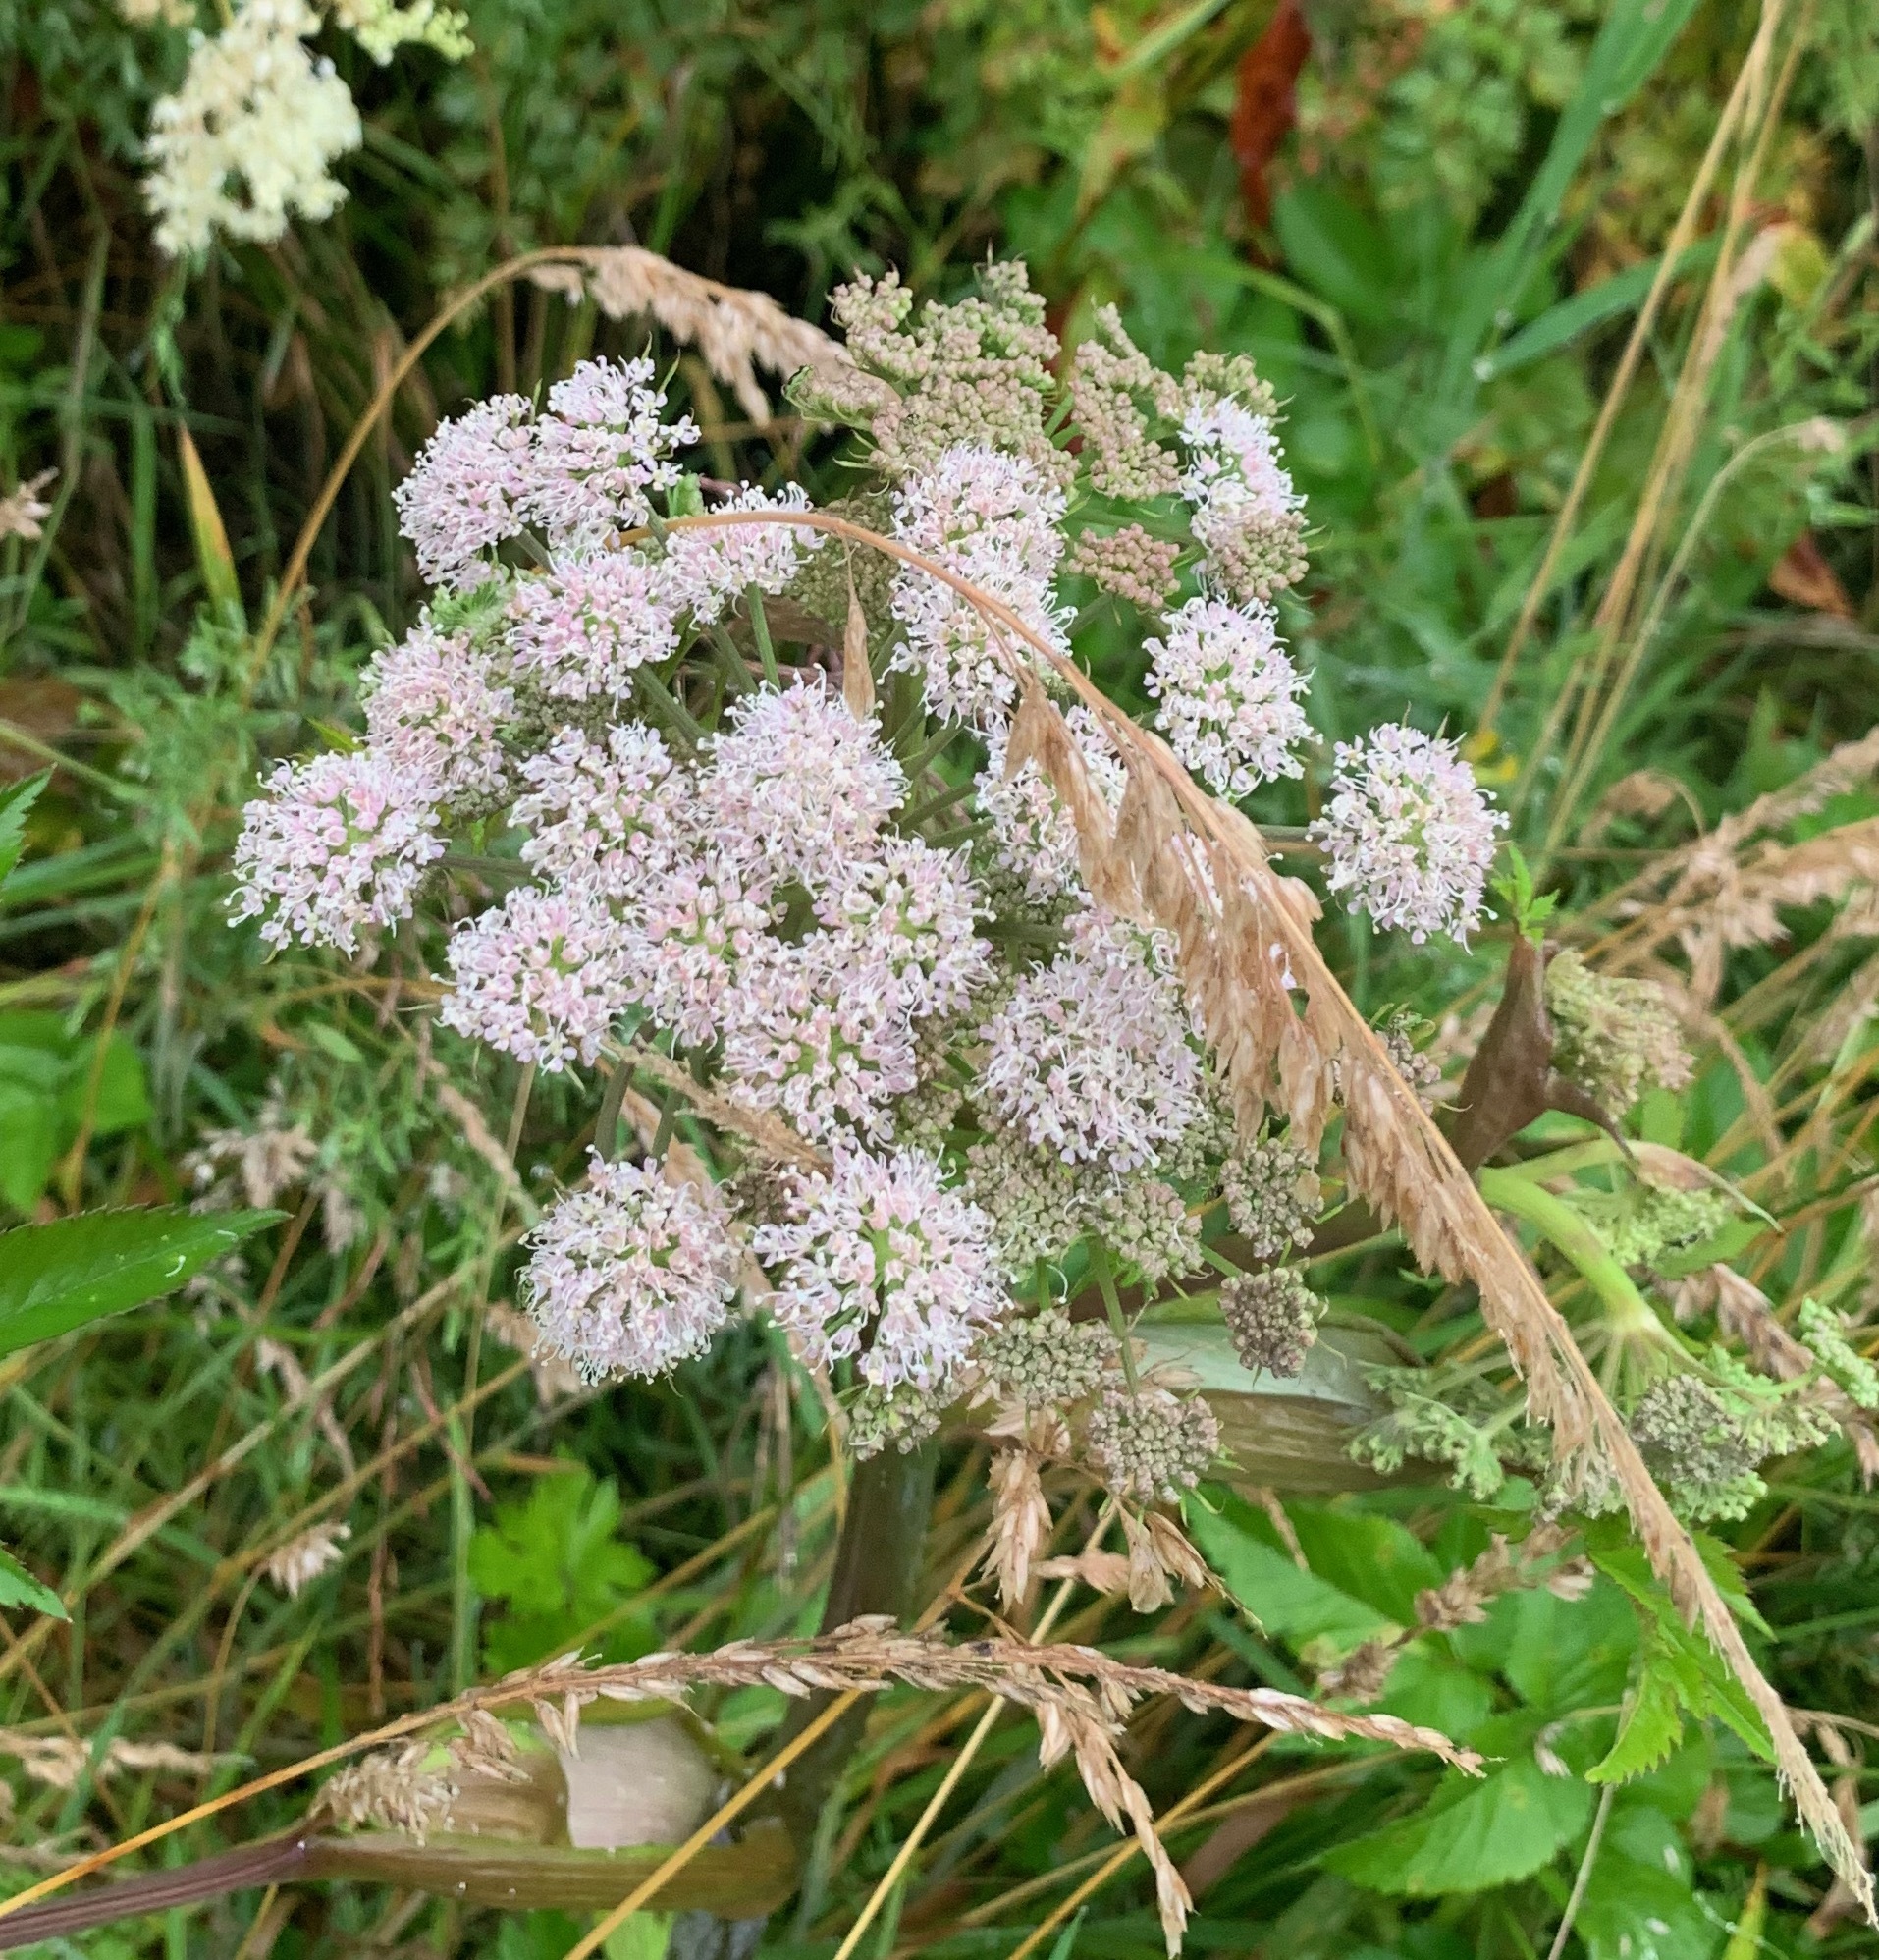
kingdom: Plantae
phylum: Tracheophyta
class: Magnoliopsida
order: Apiales
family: Apiaceae
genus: Angelica
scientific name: Angelica sylvestris
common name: Wild angelica
